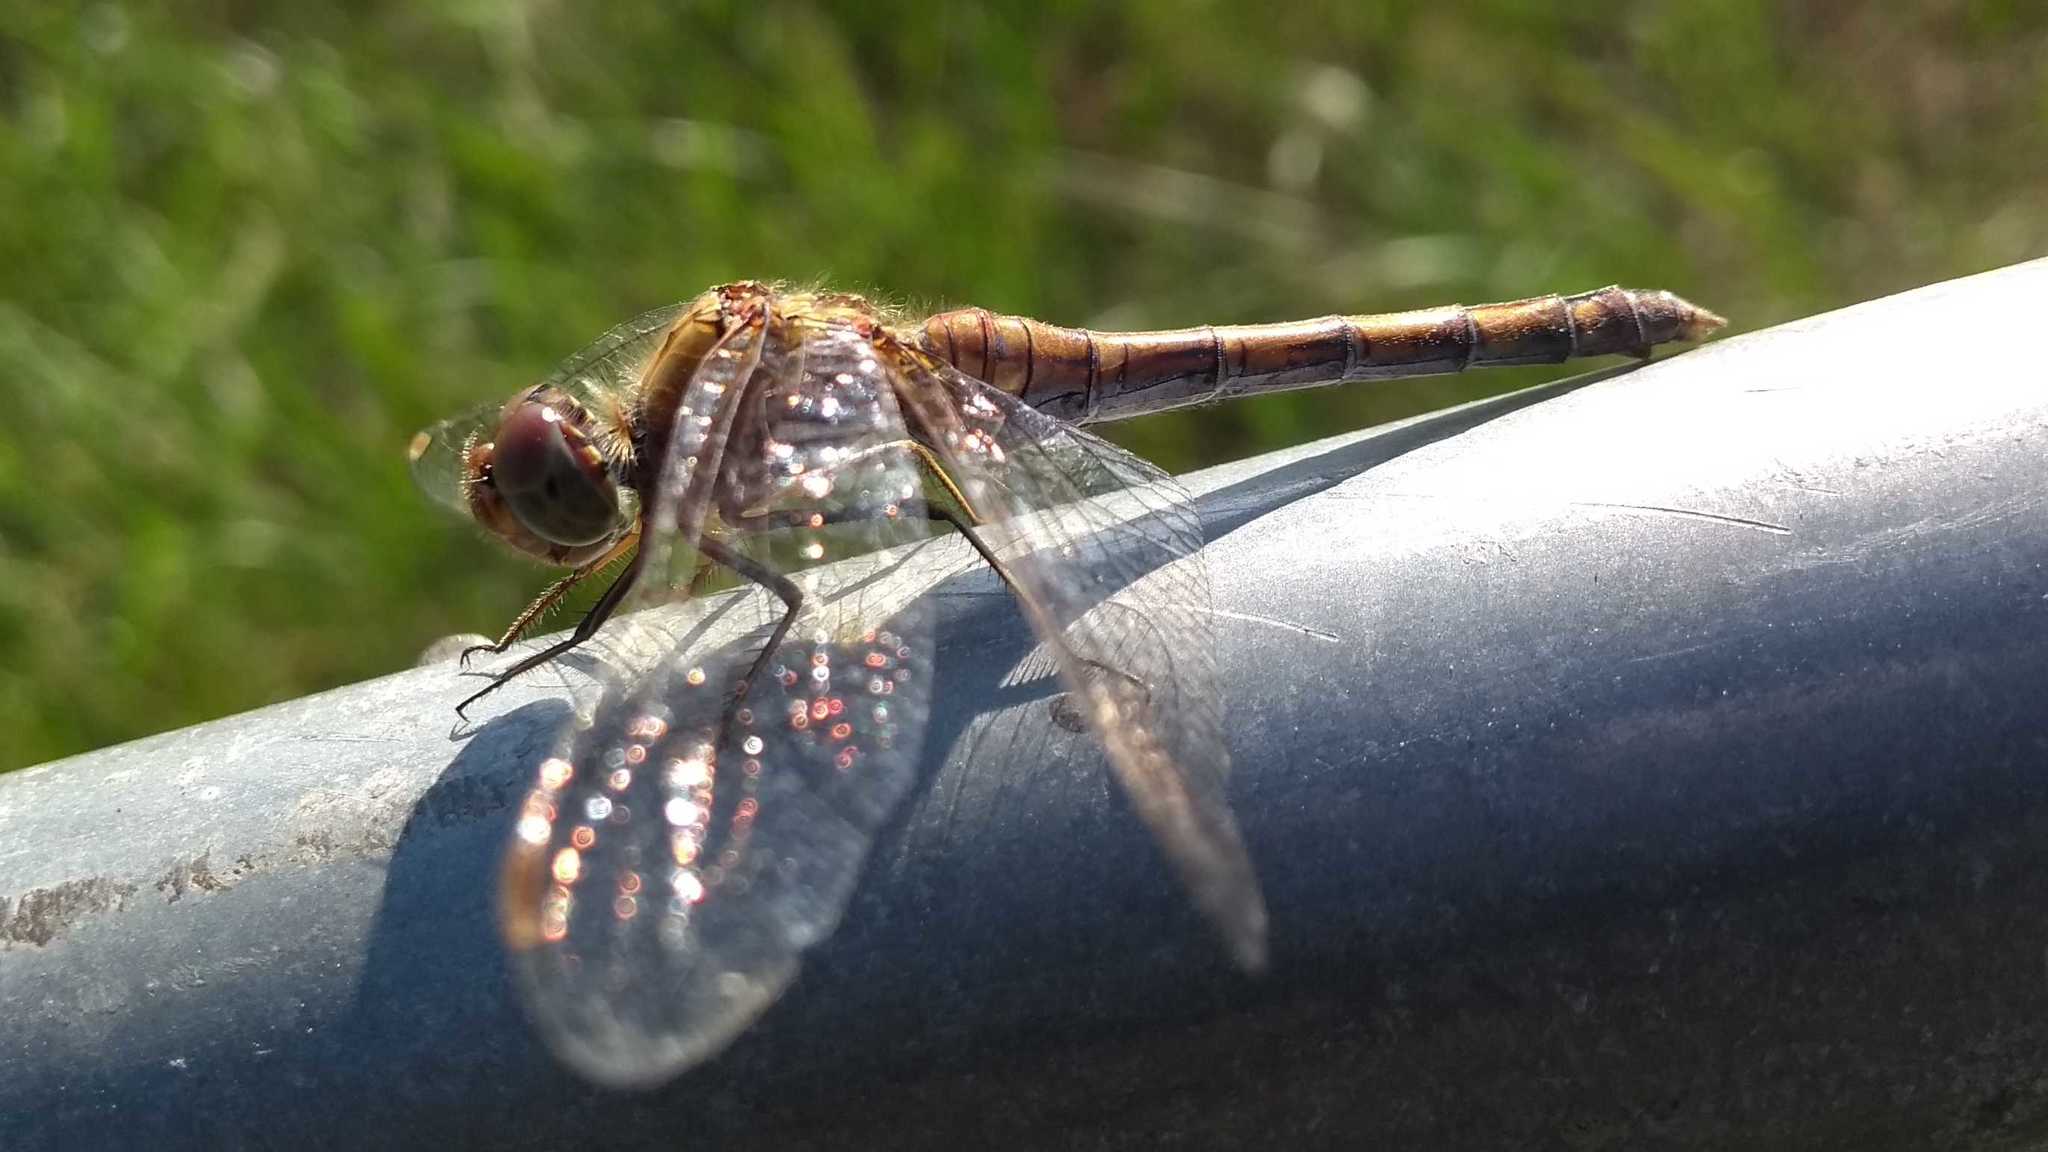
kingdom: Animalia
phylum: Arthropoda
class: Insecta
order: Odonata
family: Libellulidae
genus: Sympetrum
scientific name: Sympetrum striolatum
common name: Common darter
